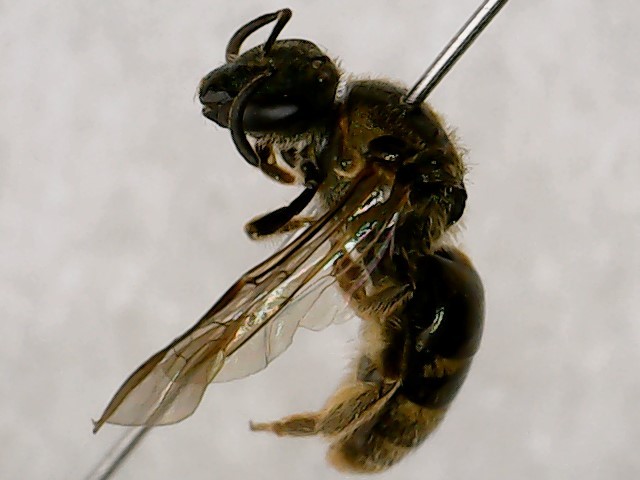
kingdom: Animalia
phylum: Arthropoda
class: Insecta
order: Hymenoptera
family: Halictidae
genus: Dialictus
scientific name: Dialictus
